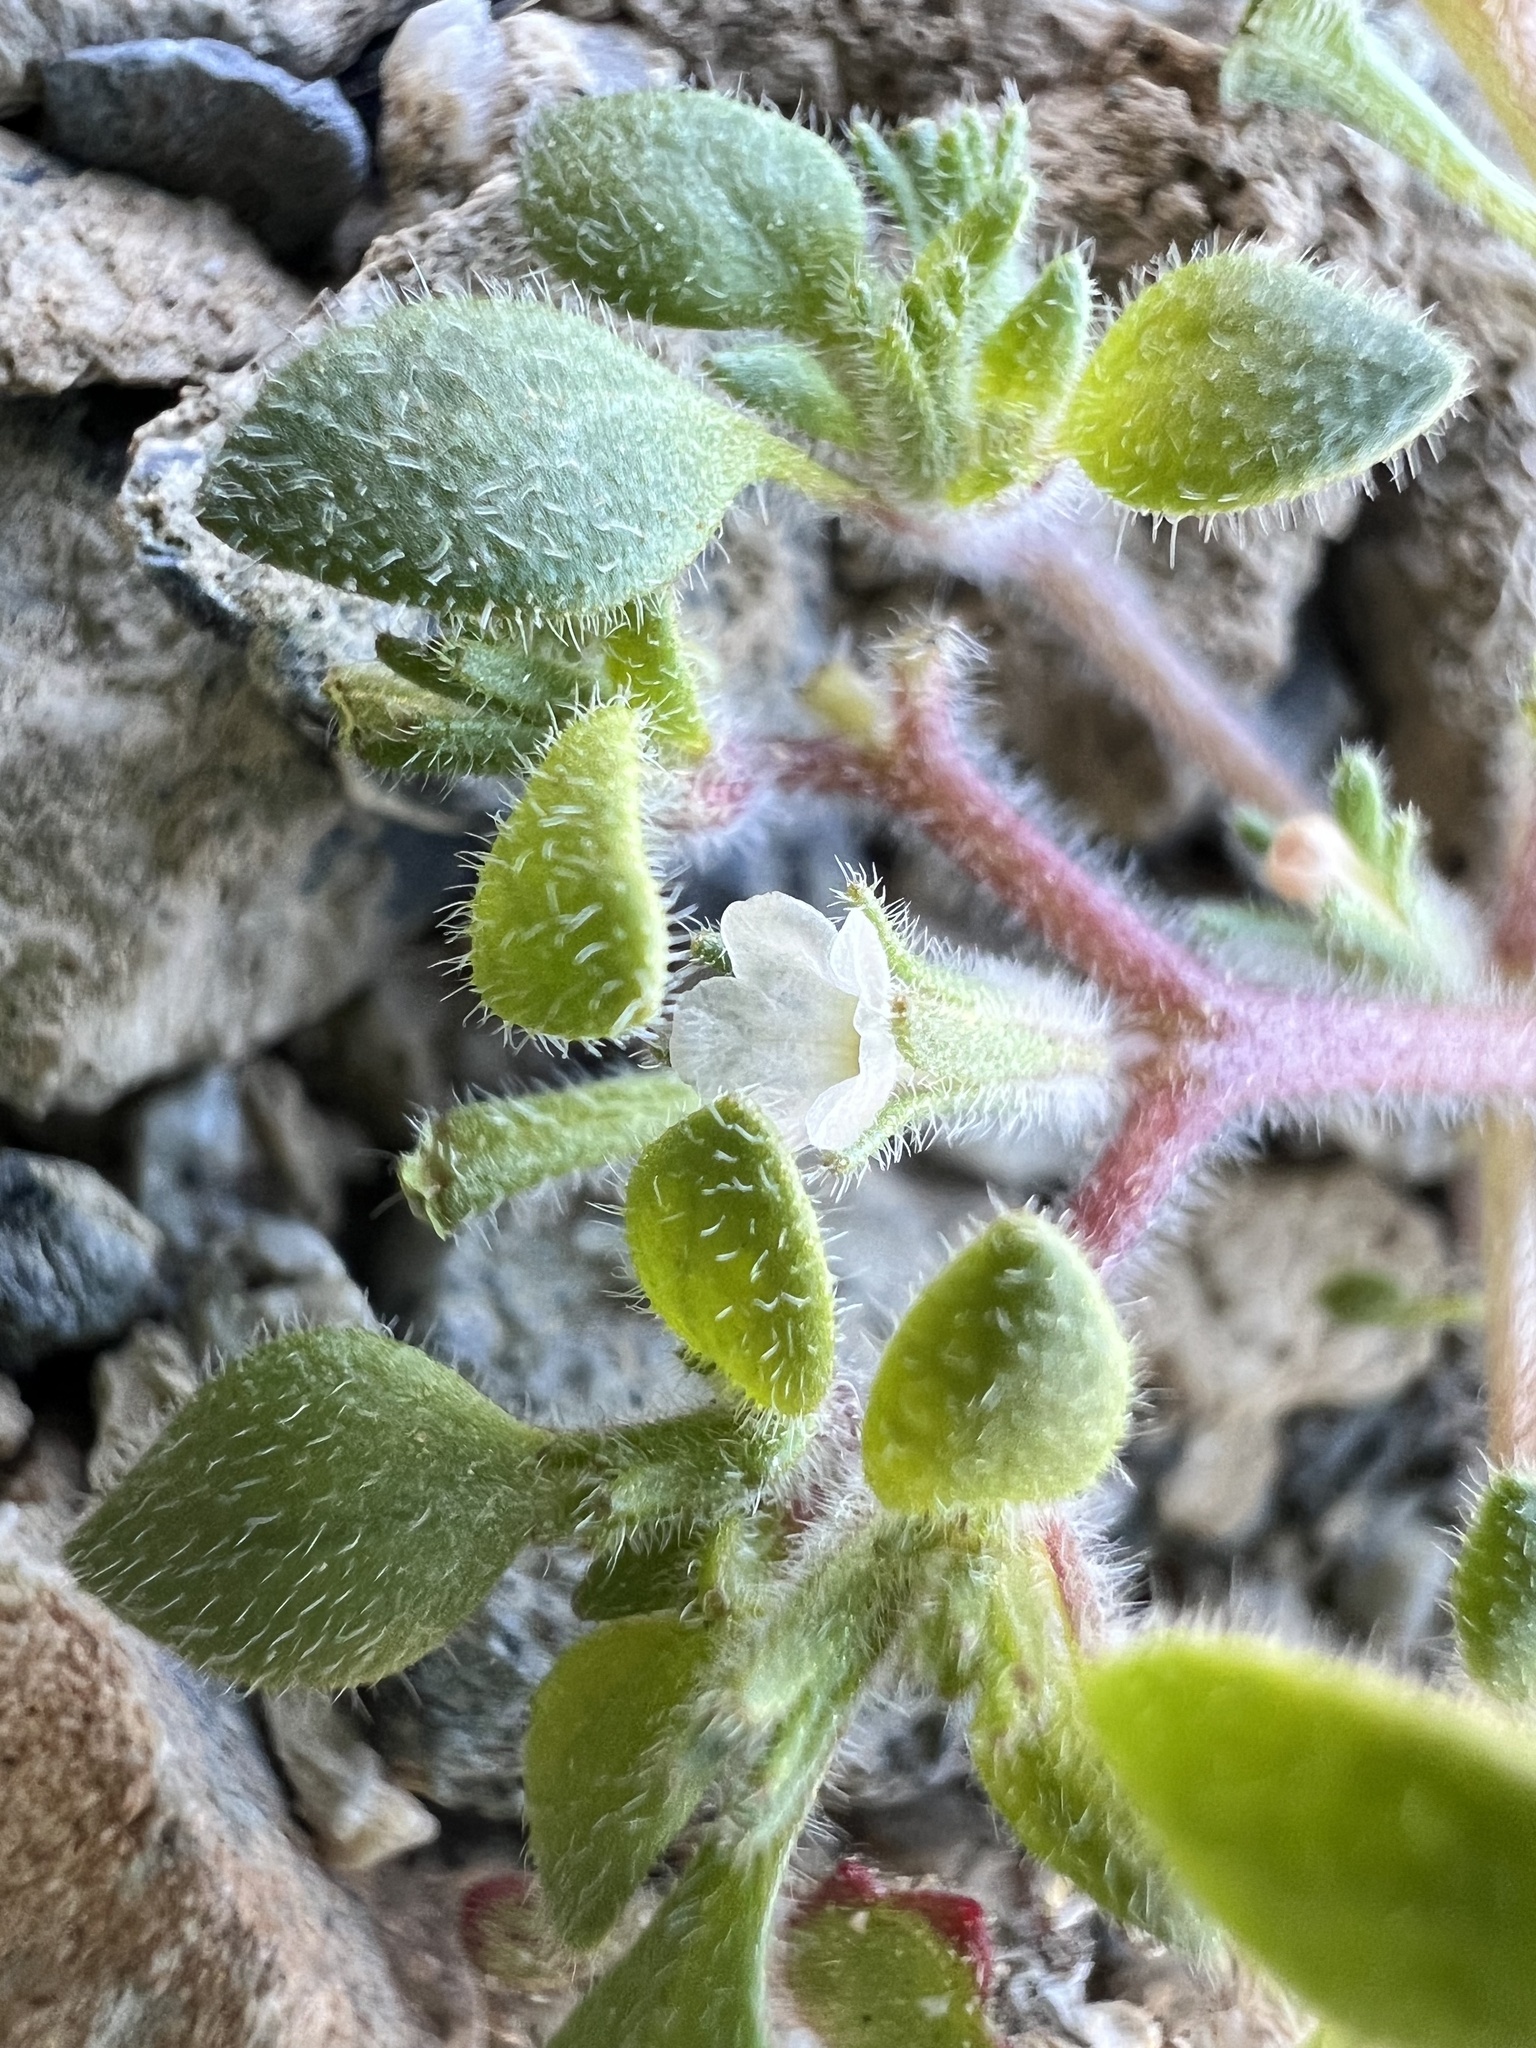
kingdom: Plantae
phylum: Tracheophyta
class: Magnoliopsida
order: Boraginales
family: Namaceae
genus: Nama
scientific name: Nama pusilla
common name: Eggleaf nama
